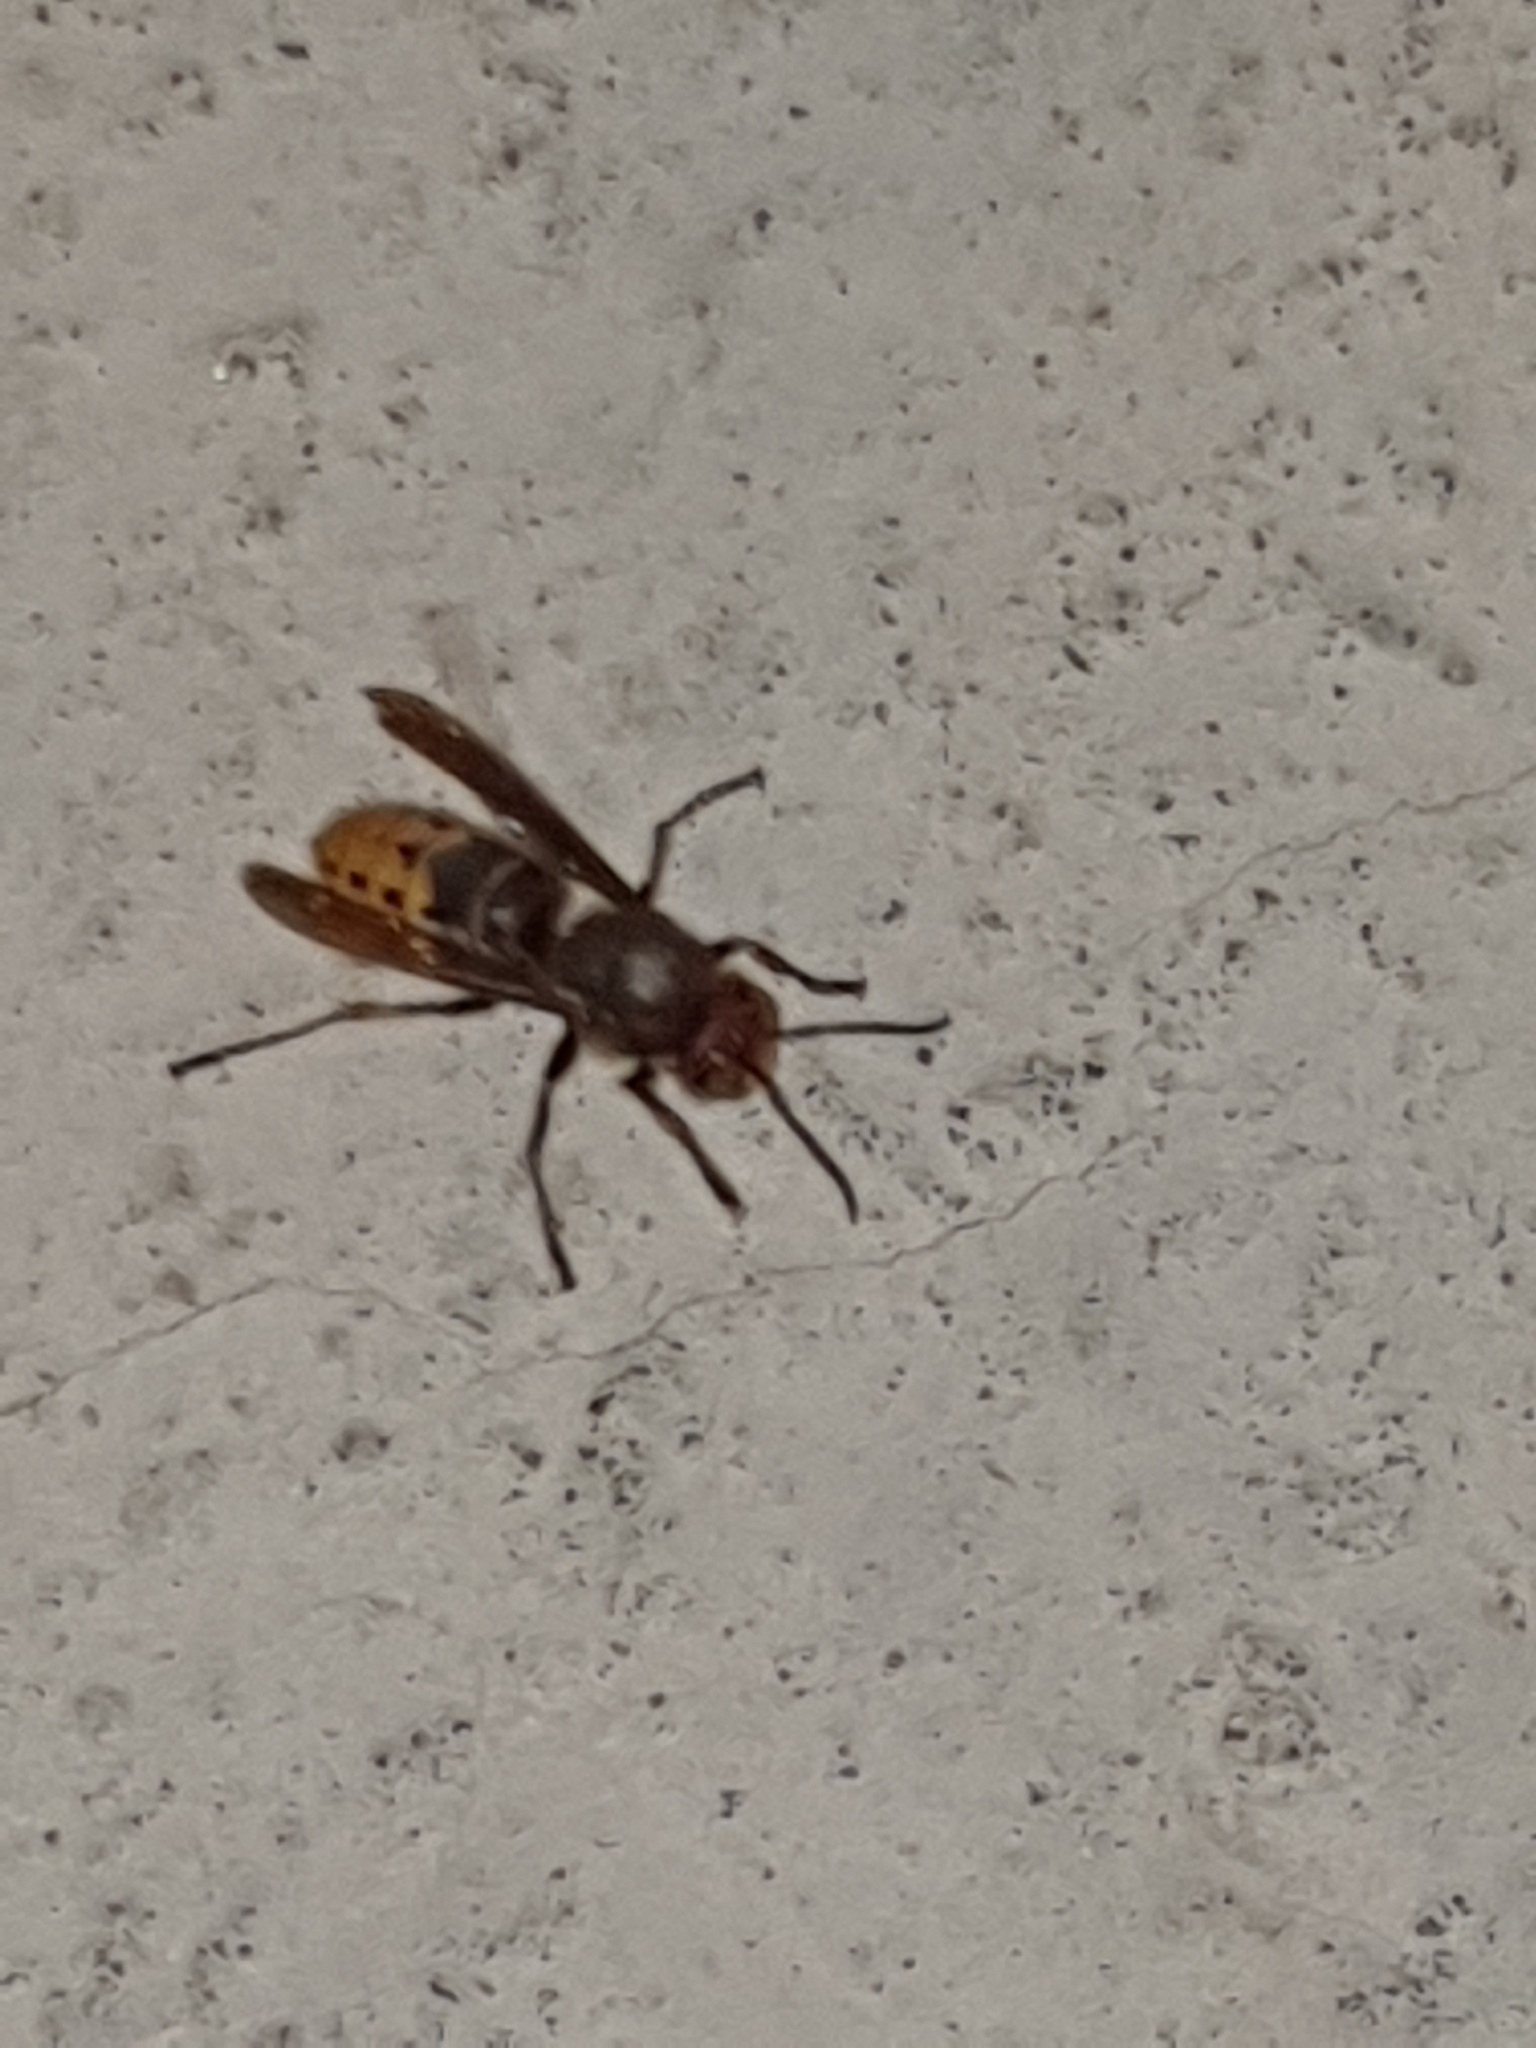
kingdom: Animalia
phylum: Arthropoda
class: Insecta
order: Hymenoptera
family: Vespidae
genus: Vespa
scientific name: Vespa crabro
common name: Hornet
